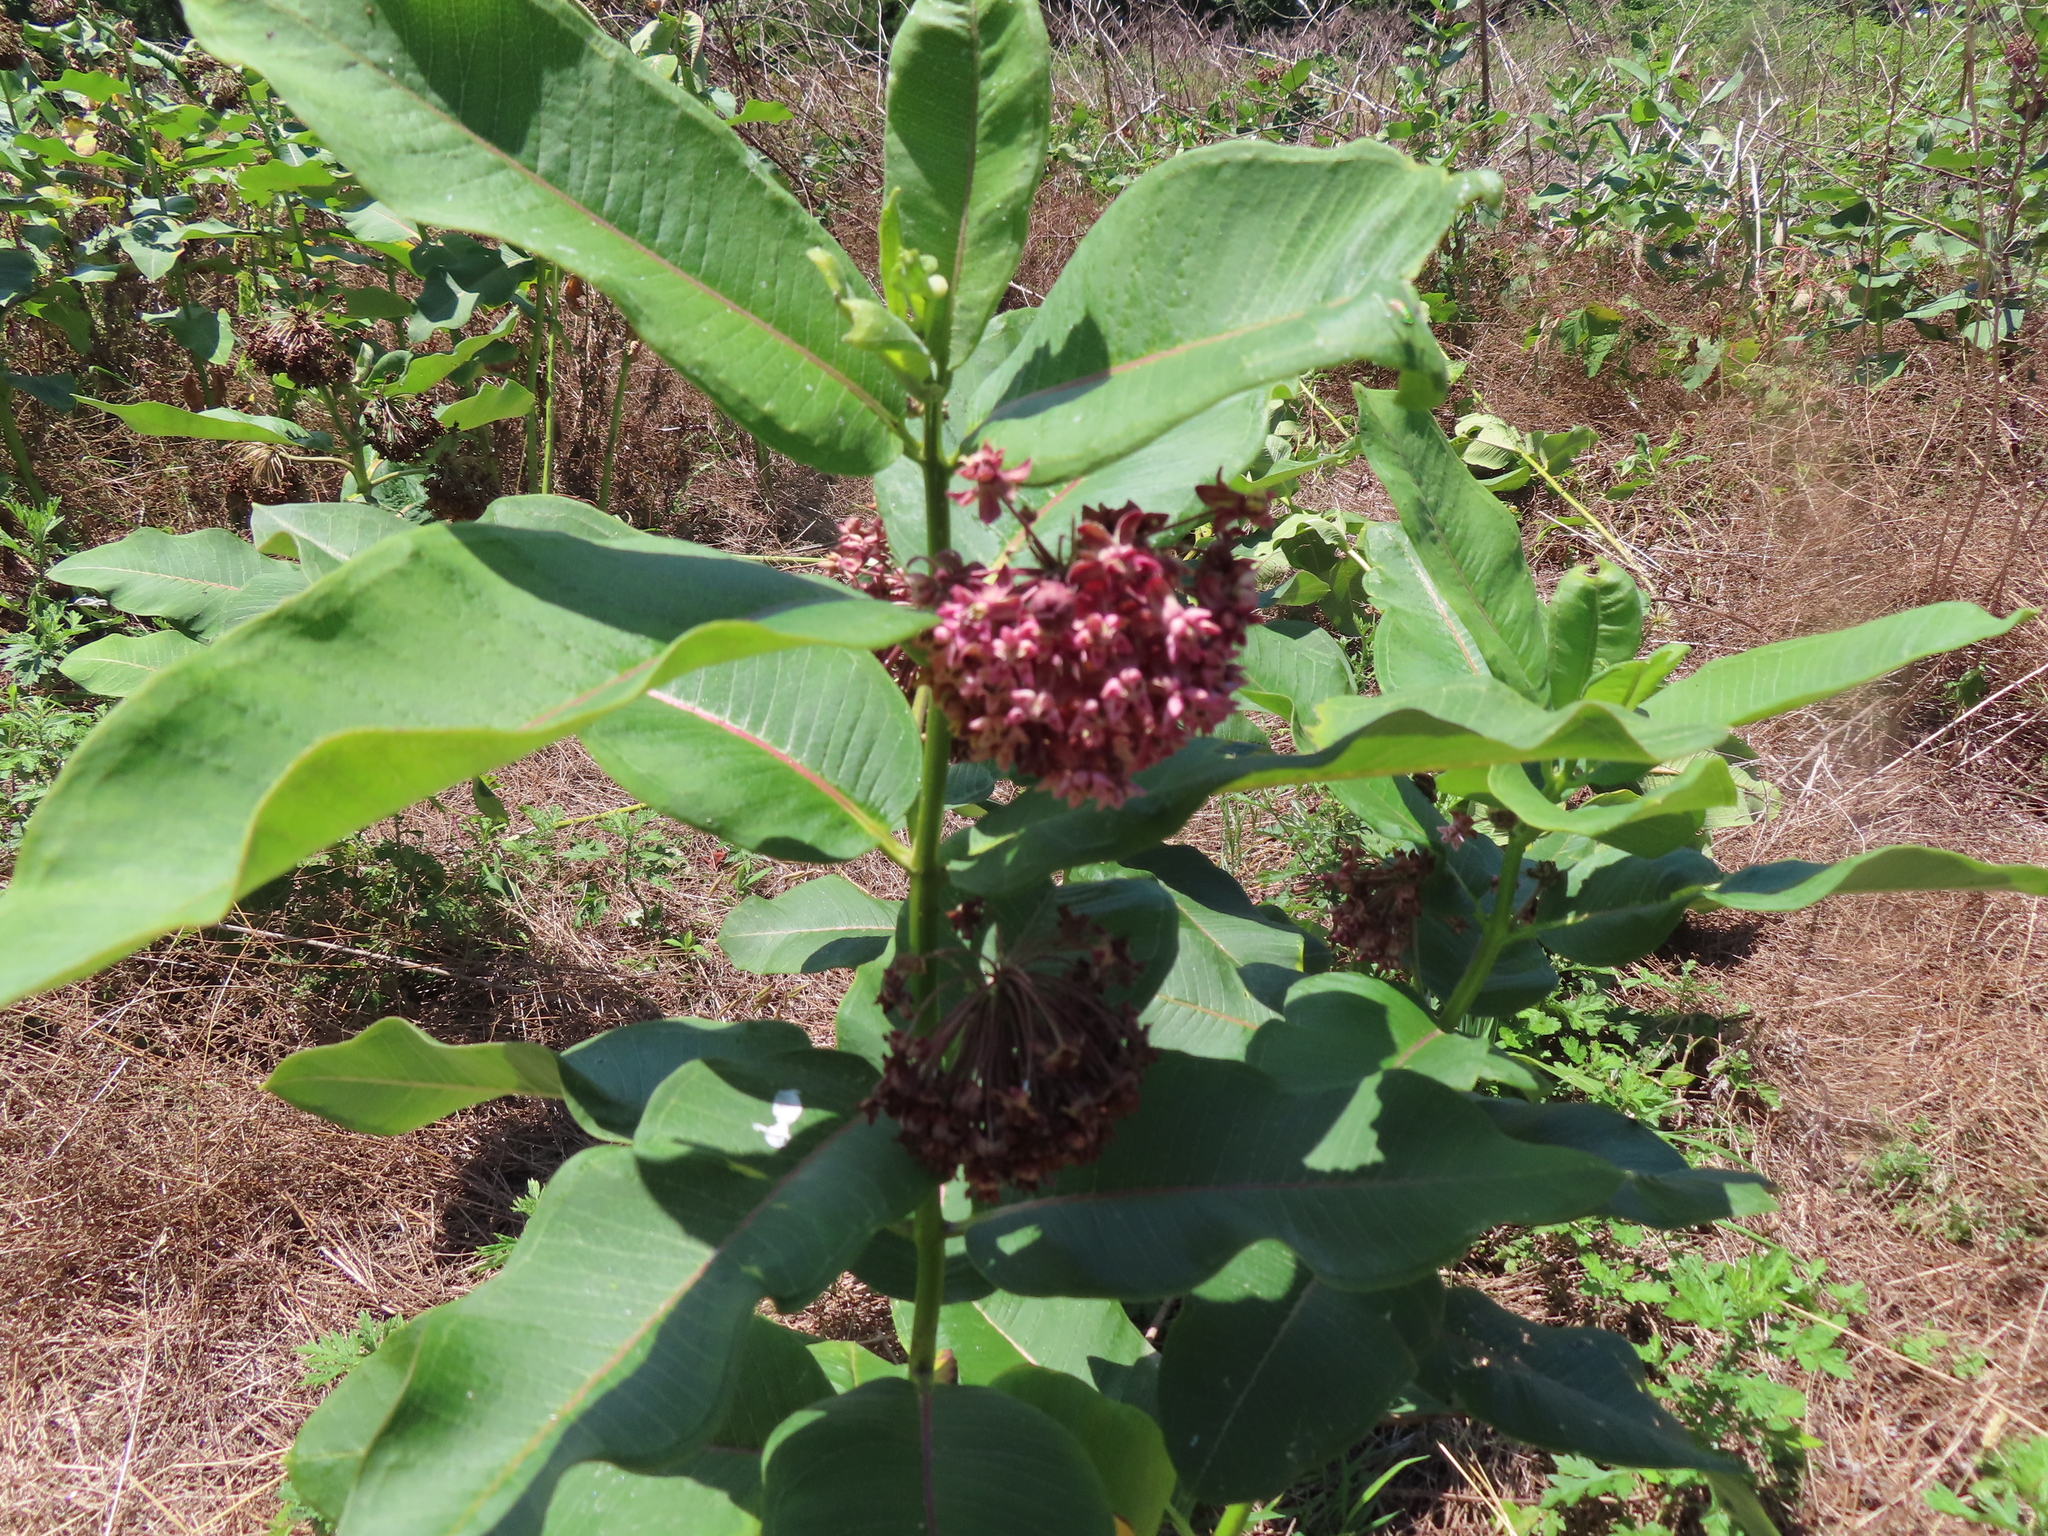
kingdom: Plantae
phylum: Tracheophyta
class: Magnoliopsida
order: Gentianales
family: Apocynaceae
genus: Asclepias
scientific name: Asclepias syriaca
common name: Common milkweed
